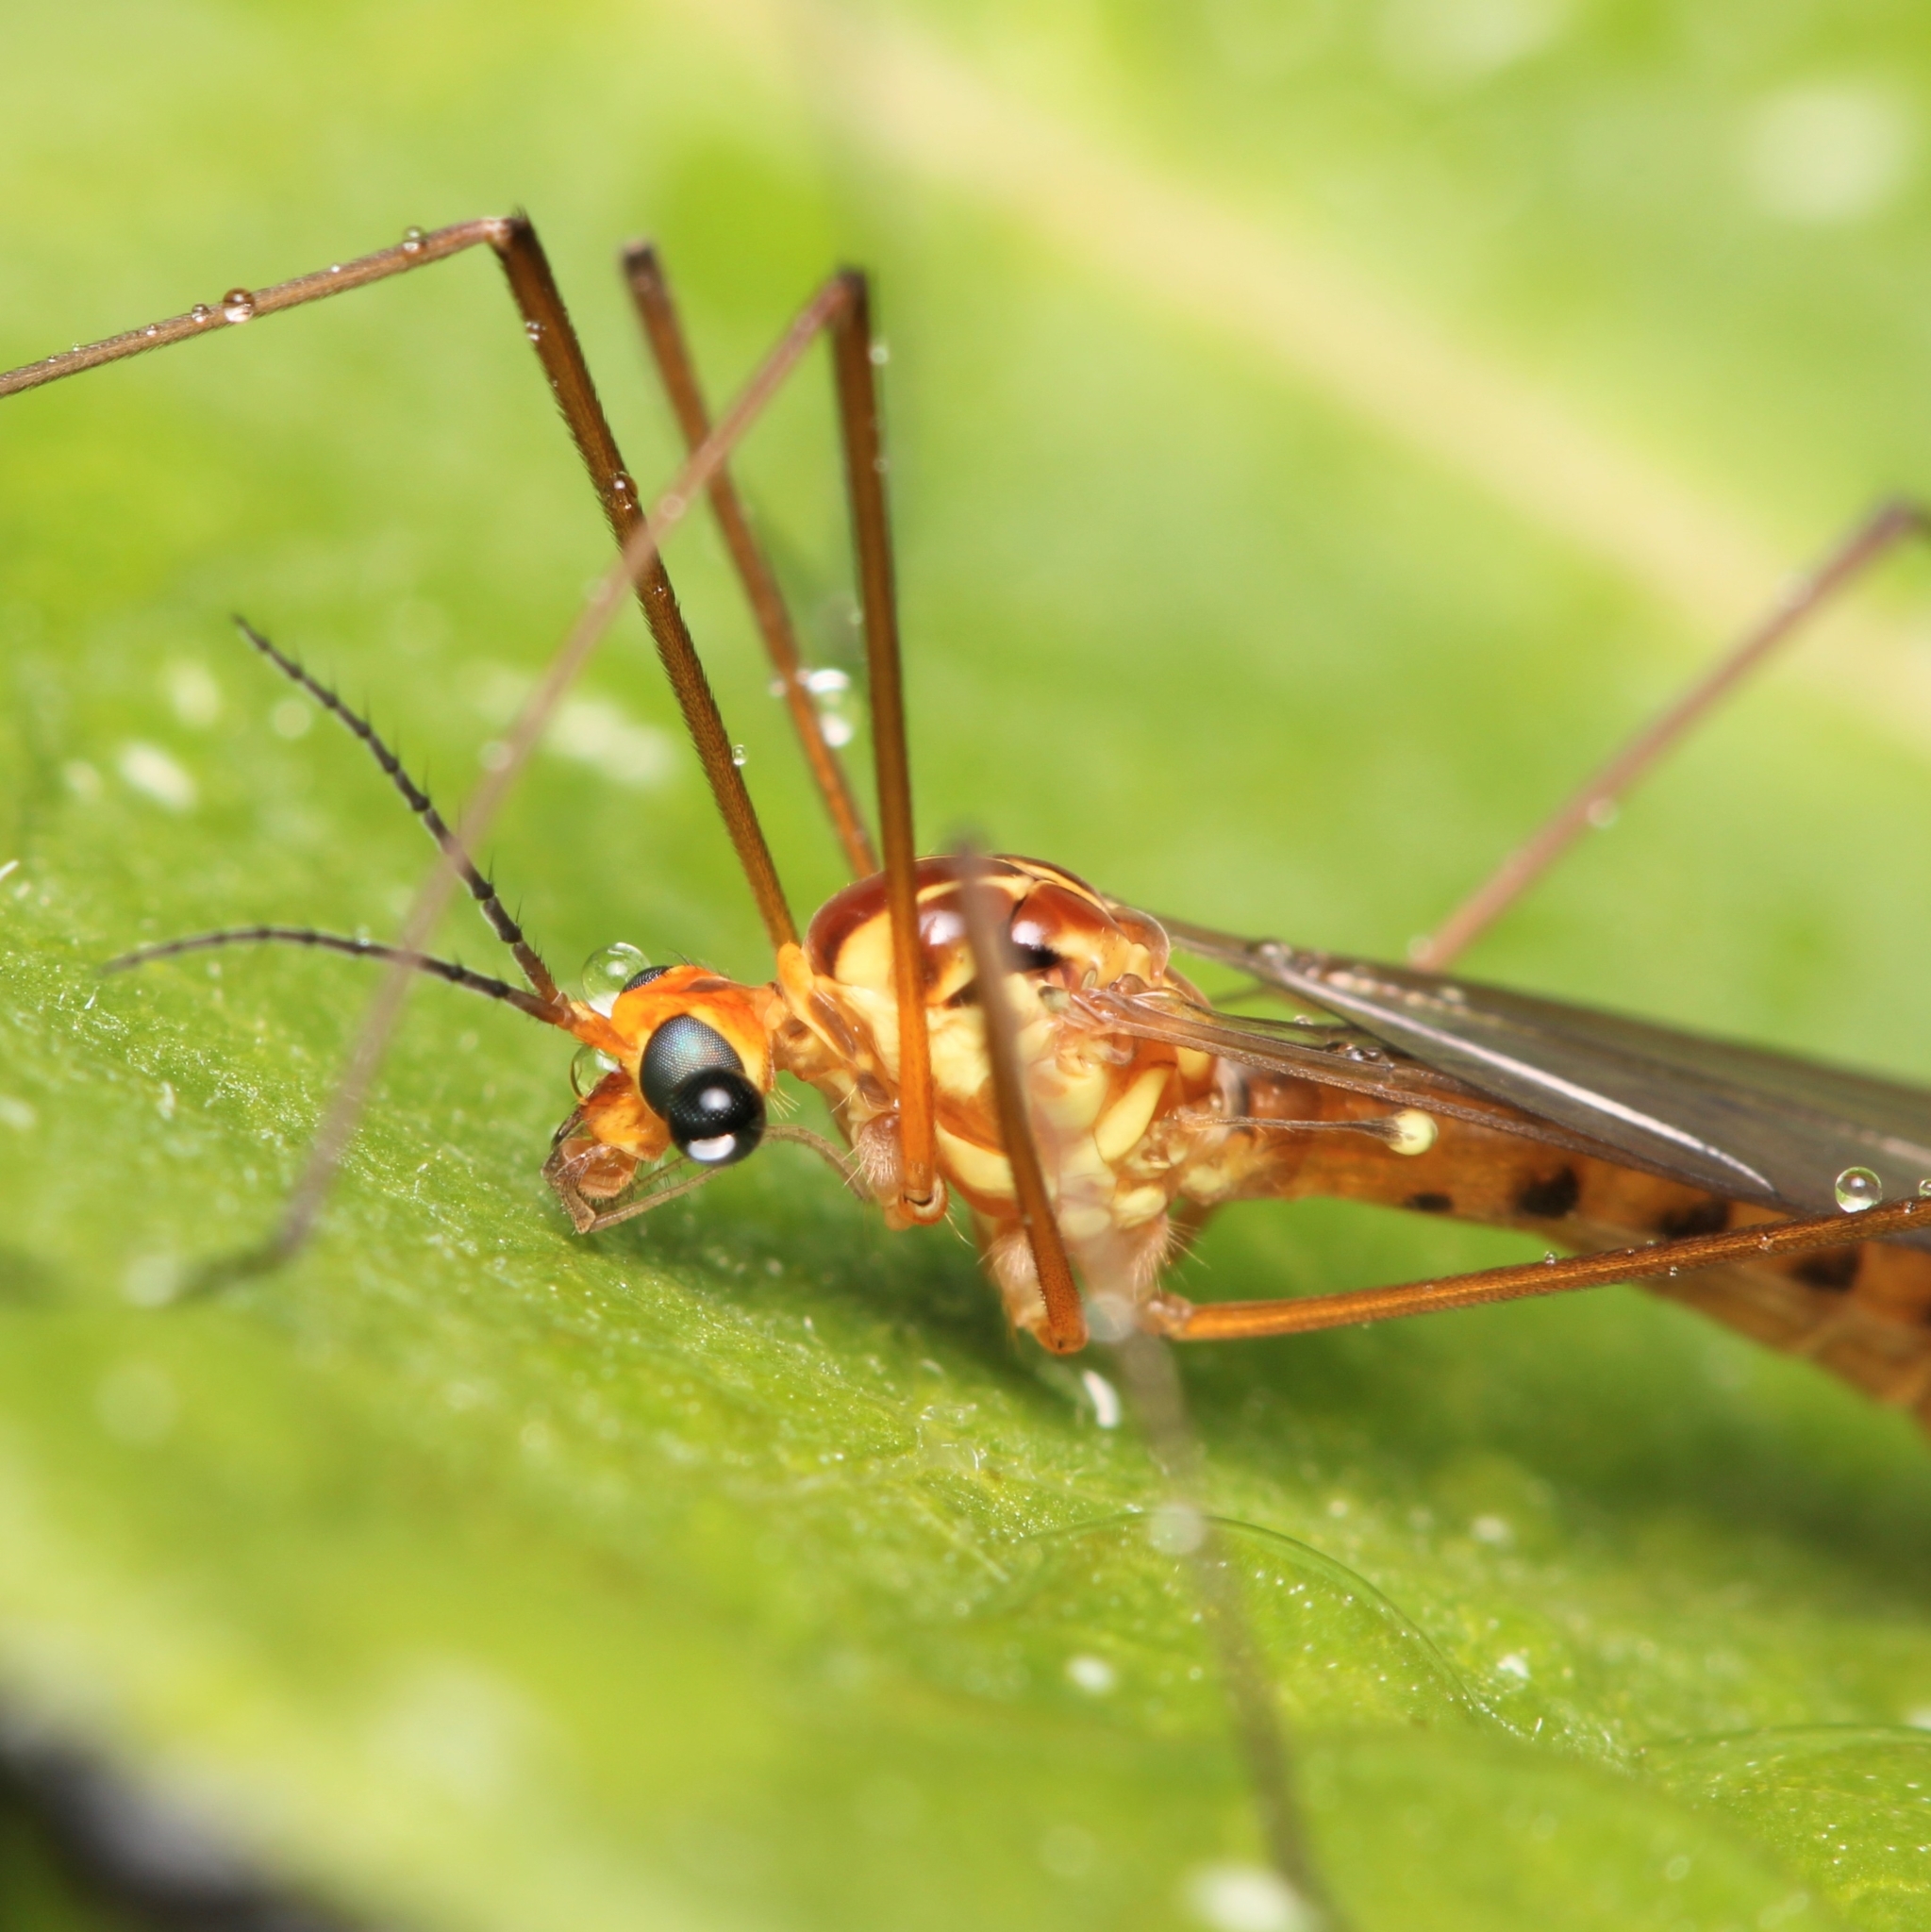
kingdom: Animalia
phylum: Arthropoda
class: Insecta
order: Diptera
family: Tipulidae
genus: Nephrotoma
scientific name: Nephrotoma ferruginea
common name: Ferruginous tiger crane fly
